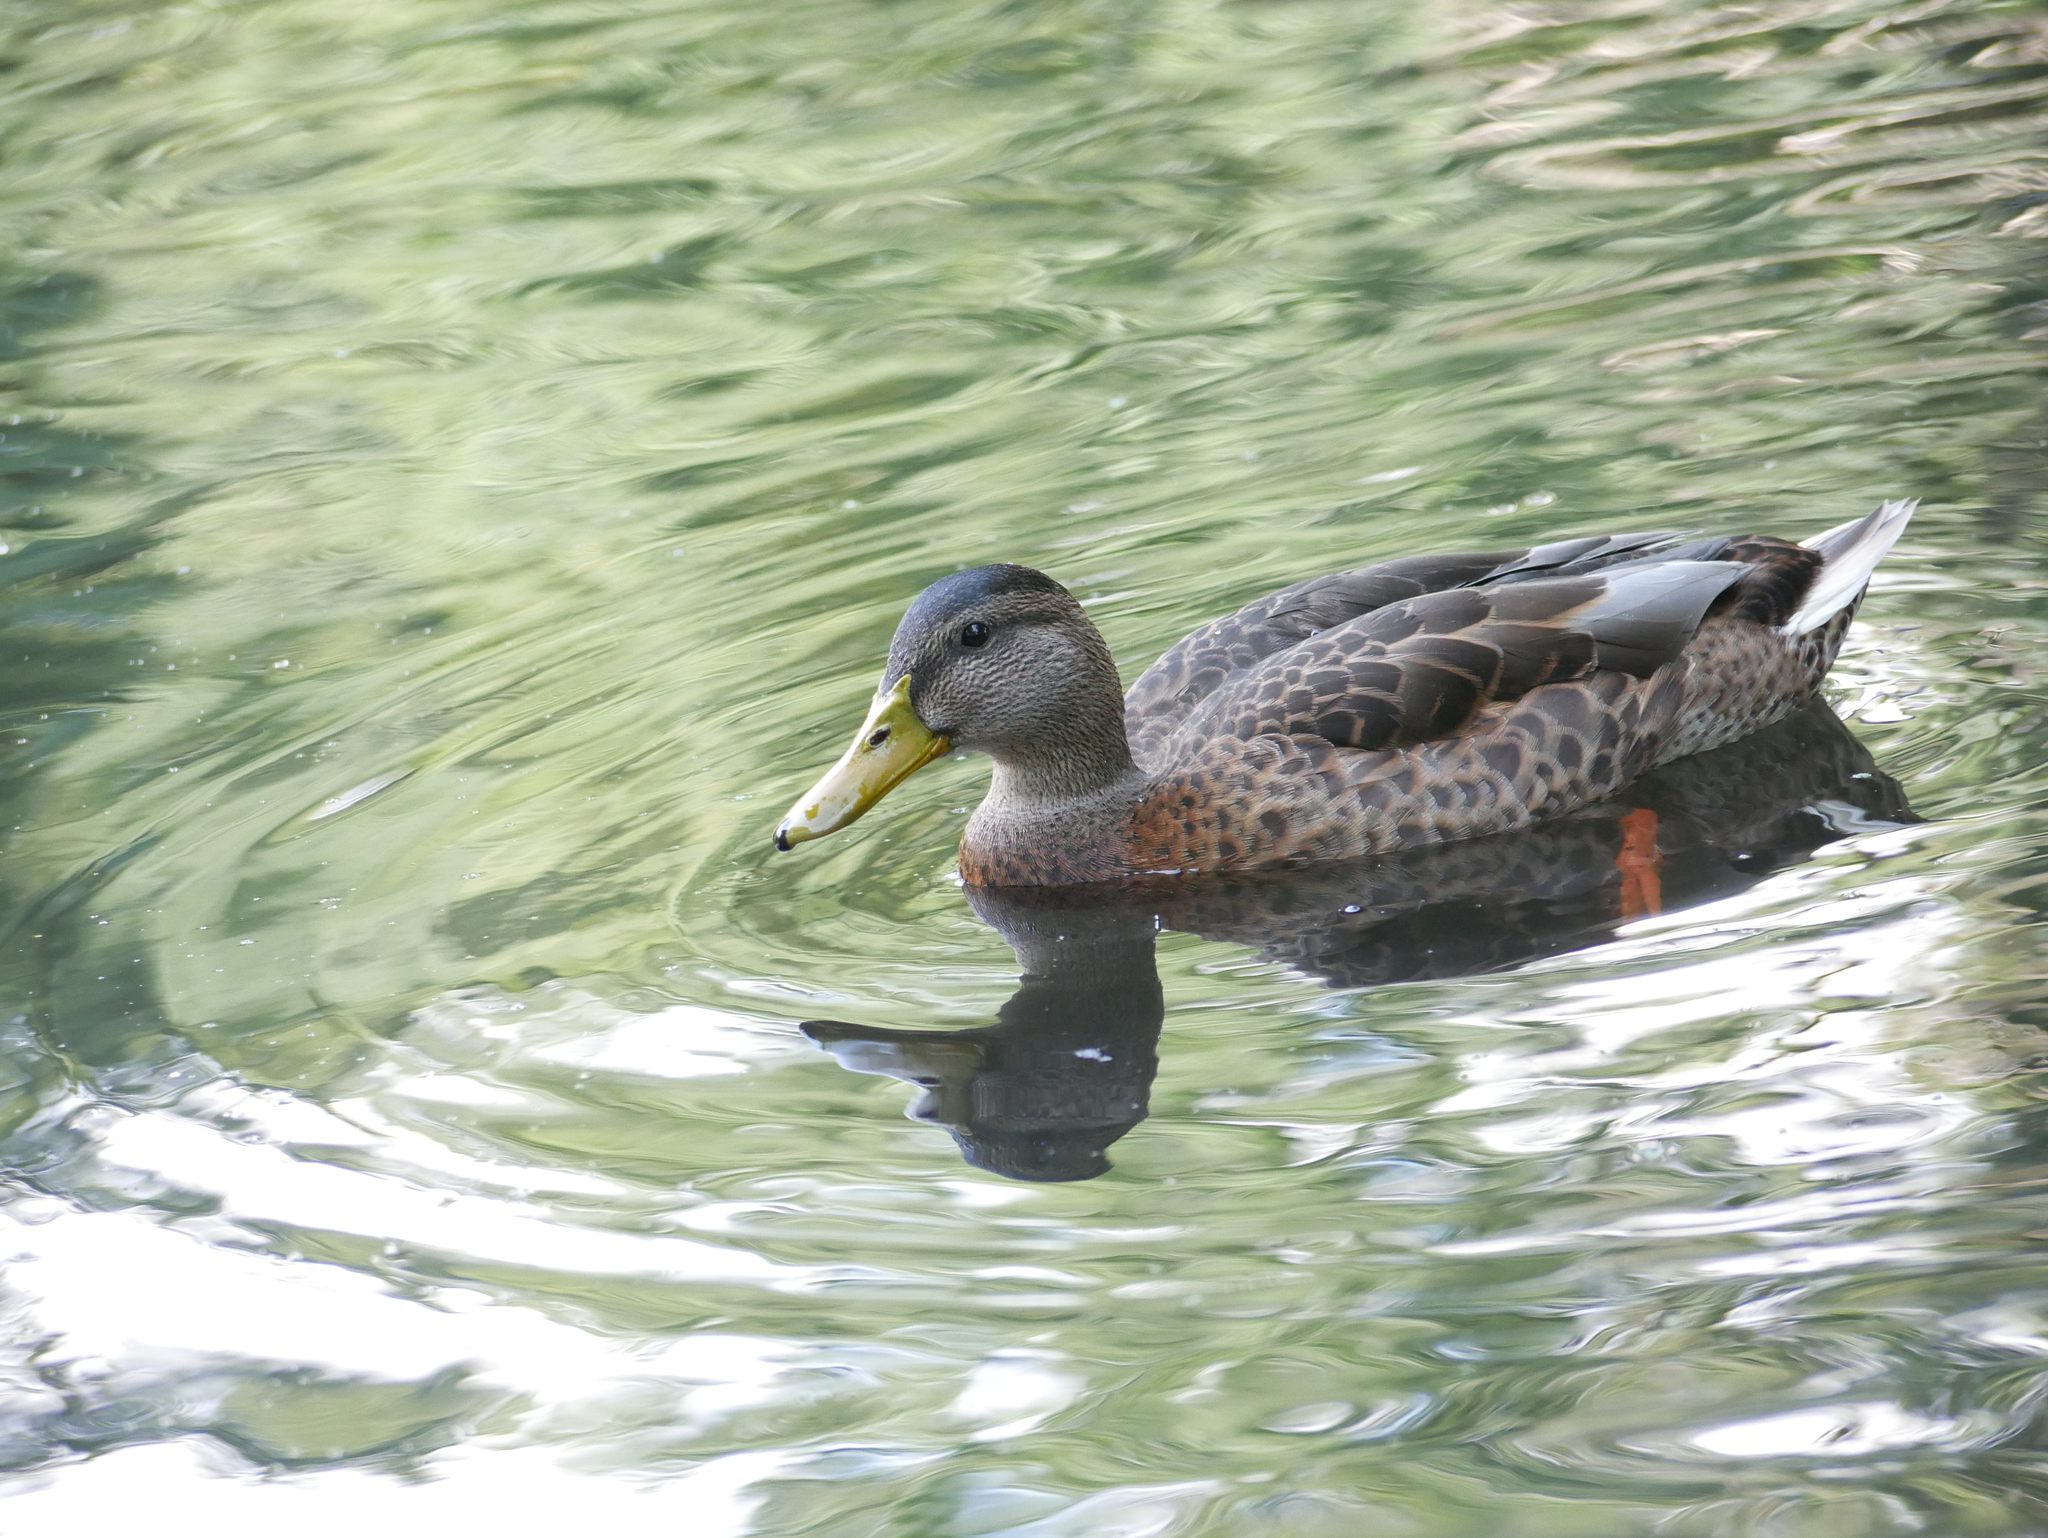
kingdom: Animalia
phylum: Chordata
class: Aves
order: Anseriformes
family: Anatidae
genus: Anas
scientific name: Anas platyrhynchos
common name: Mallard
